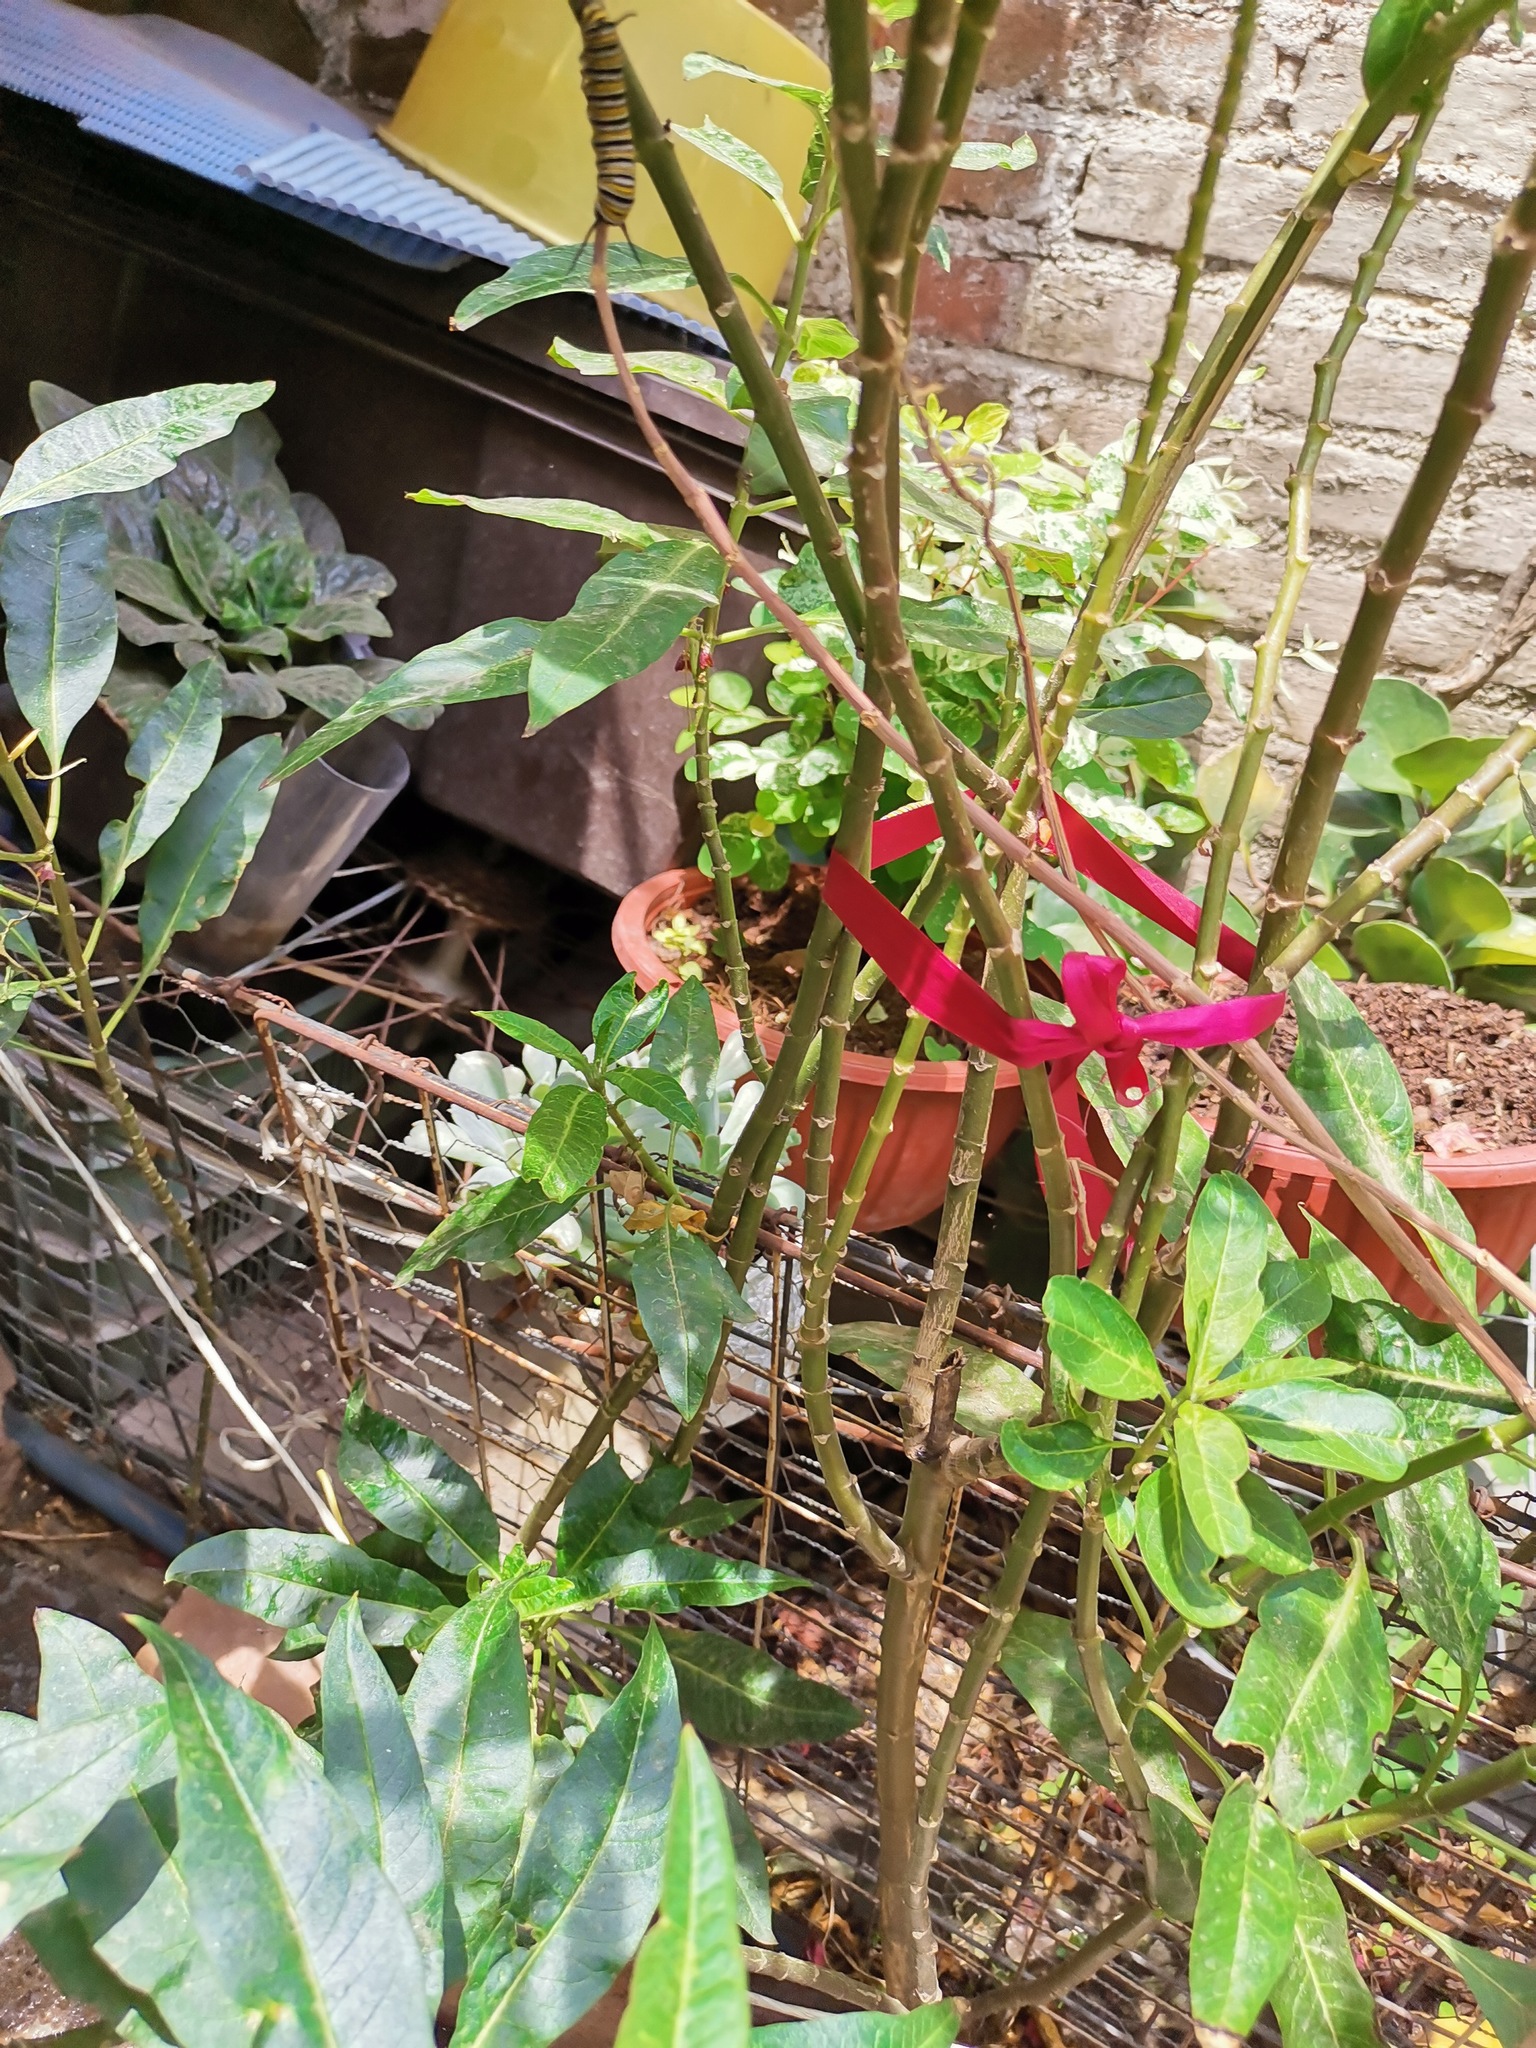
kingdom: Animalia
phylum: Arthropoda
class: Insecta
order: Lepidoptera
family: Nymphalidae
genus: Danaus
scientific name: Danaus plexippus
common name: Monarch
